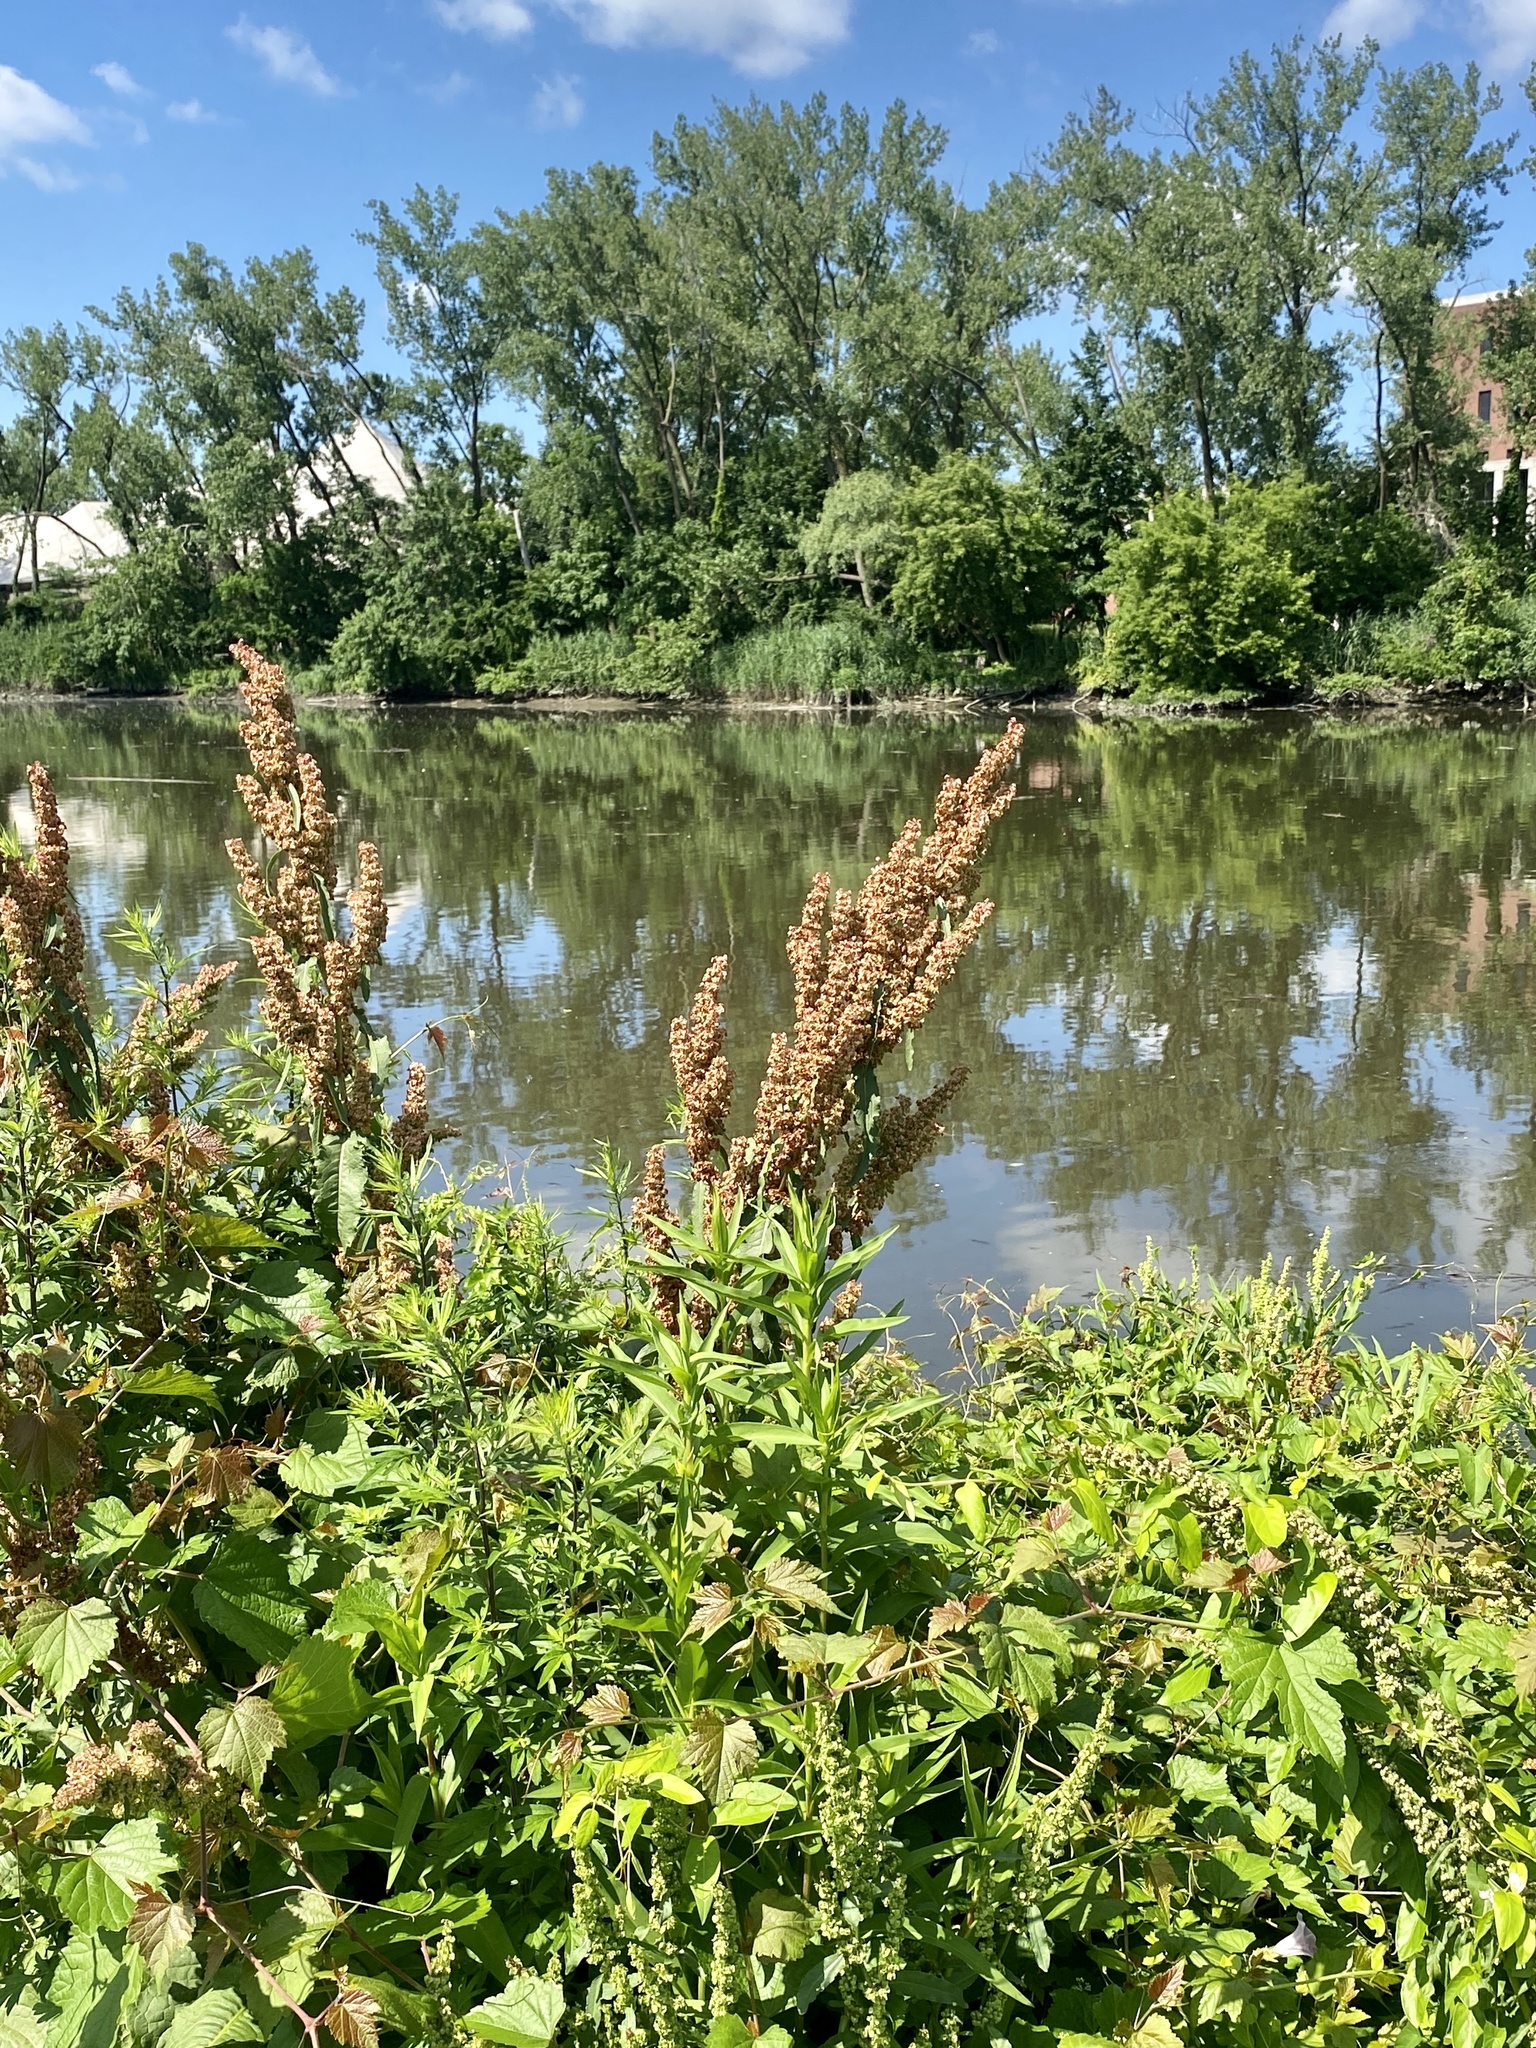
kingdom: Plantae
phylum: Tracheophyta
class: Magnoliopsida
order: Caryophyllales
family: Polygonaceae
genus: Rumex
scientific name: Rumex obtusifolius
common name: Bitter dock
